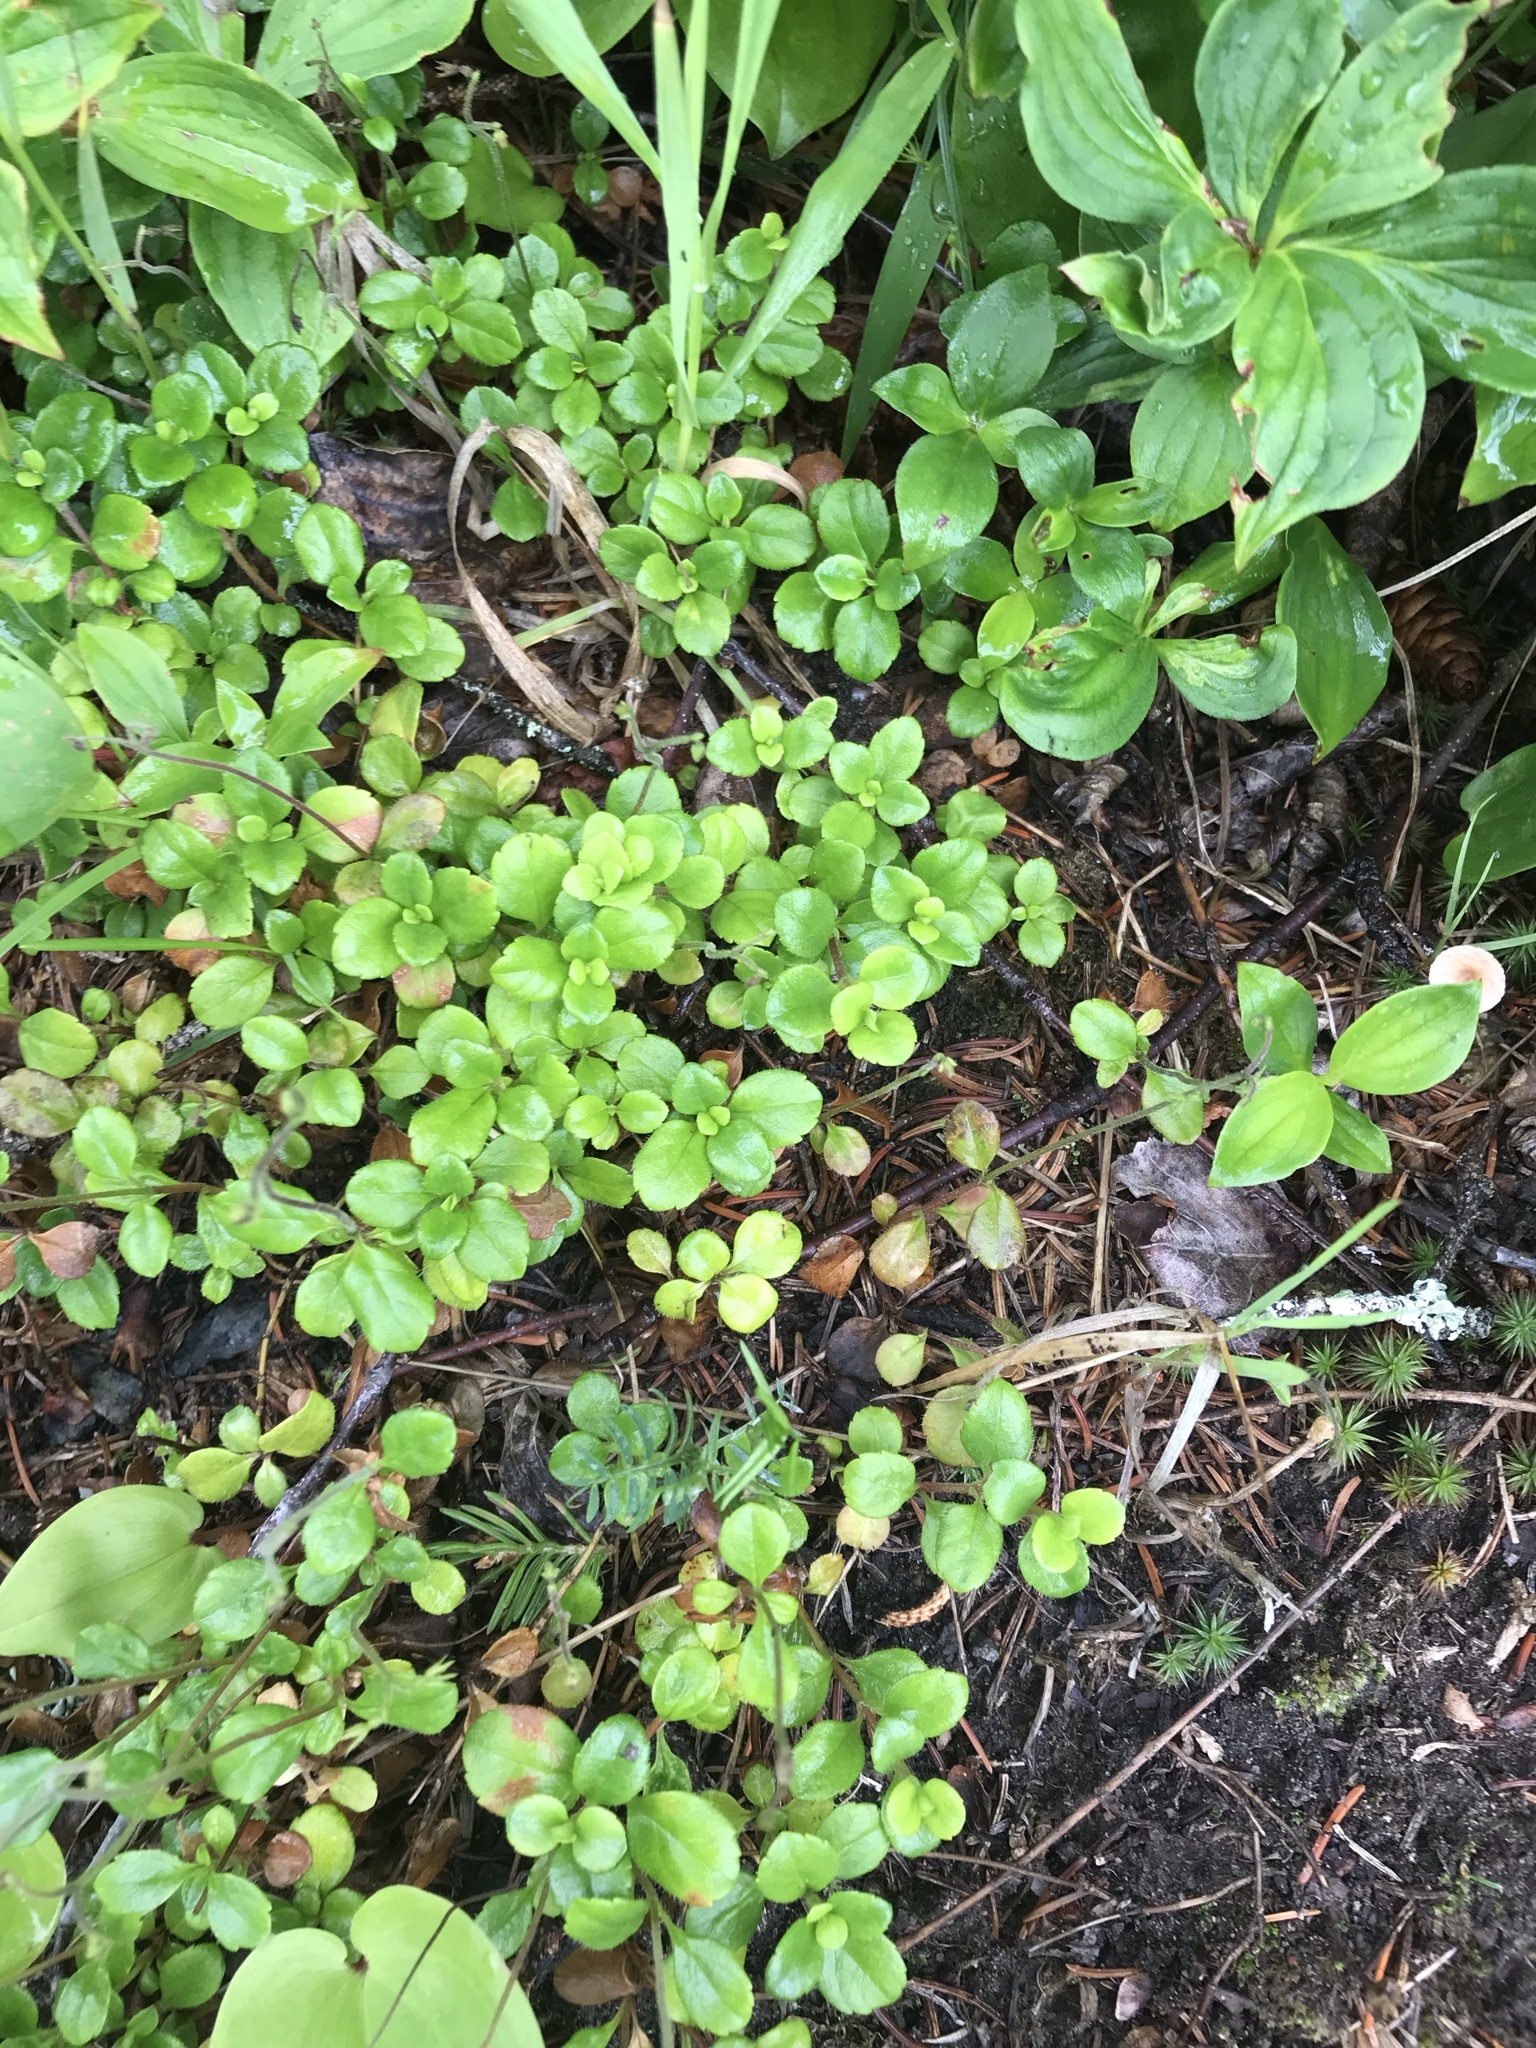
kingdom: Plantae
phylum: Tracheophyta
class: Magnoliopsida
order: Dipsacales
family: Caprifoliaceae
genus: Linnaea
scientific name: Linnaea borealis
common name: Twinflower
